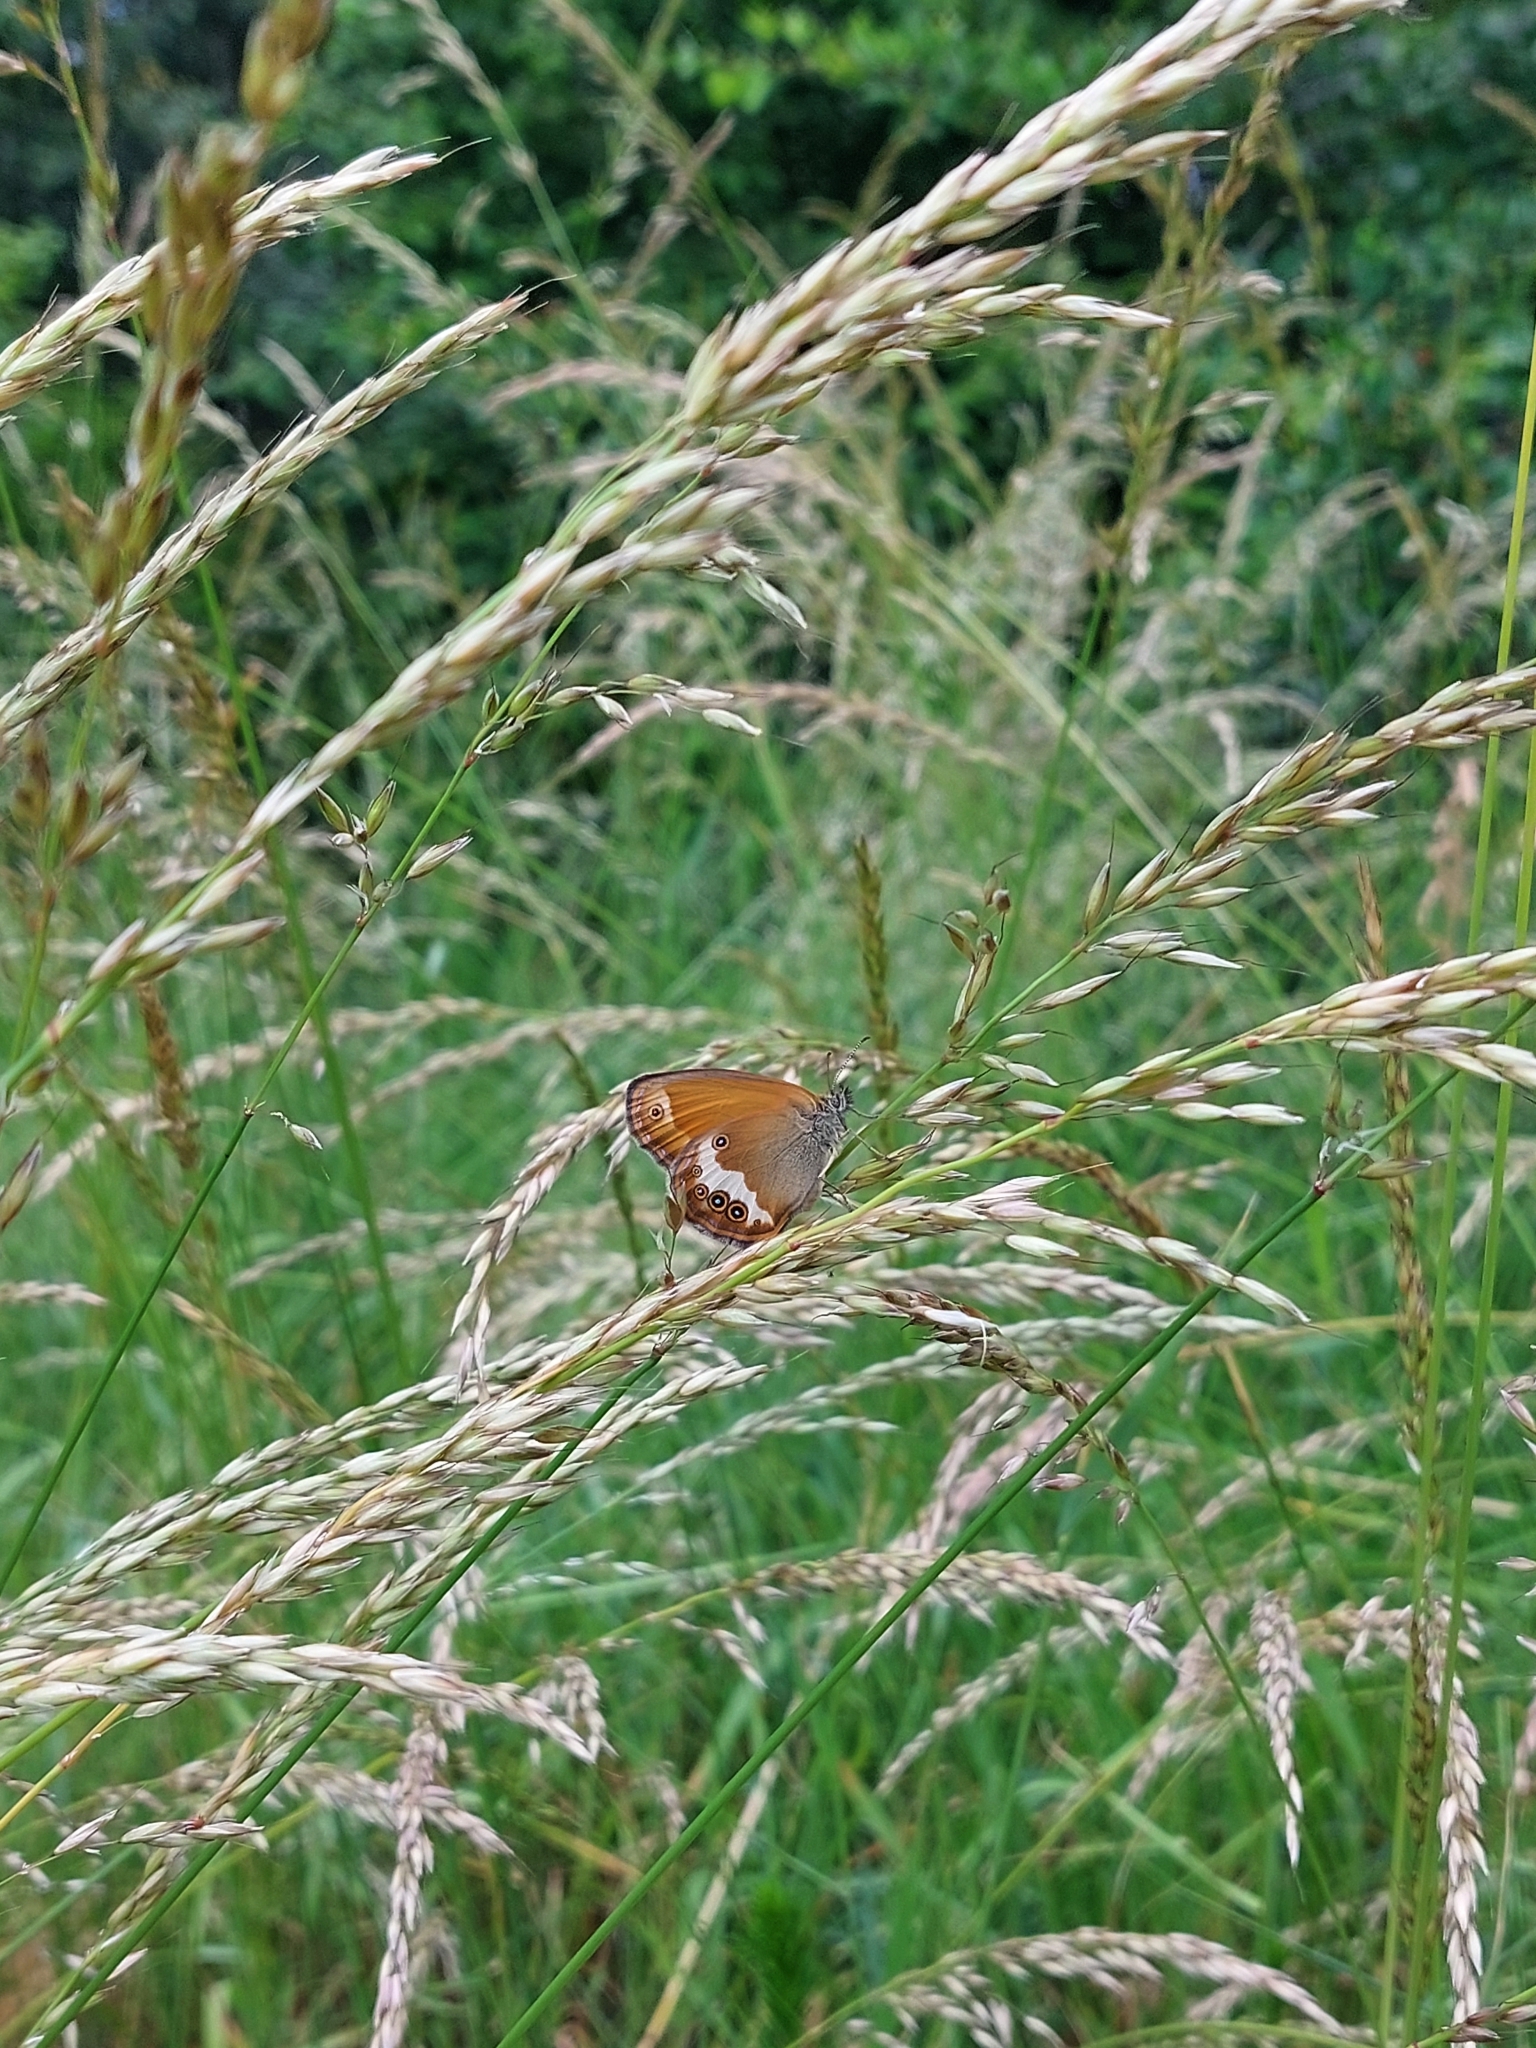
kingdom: Animalia
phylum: Arthropoda
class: Insecta
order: Lepidoptera
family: Nymphalidae
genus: Coenonympha
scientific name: Coenonympha arcania
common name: Pearly heath
